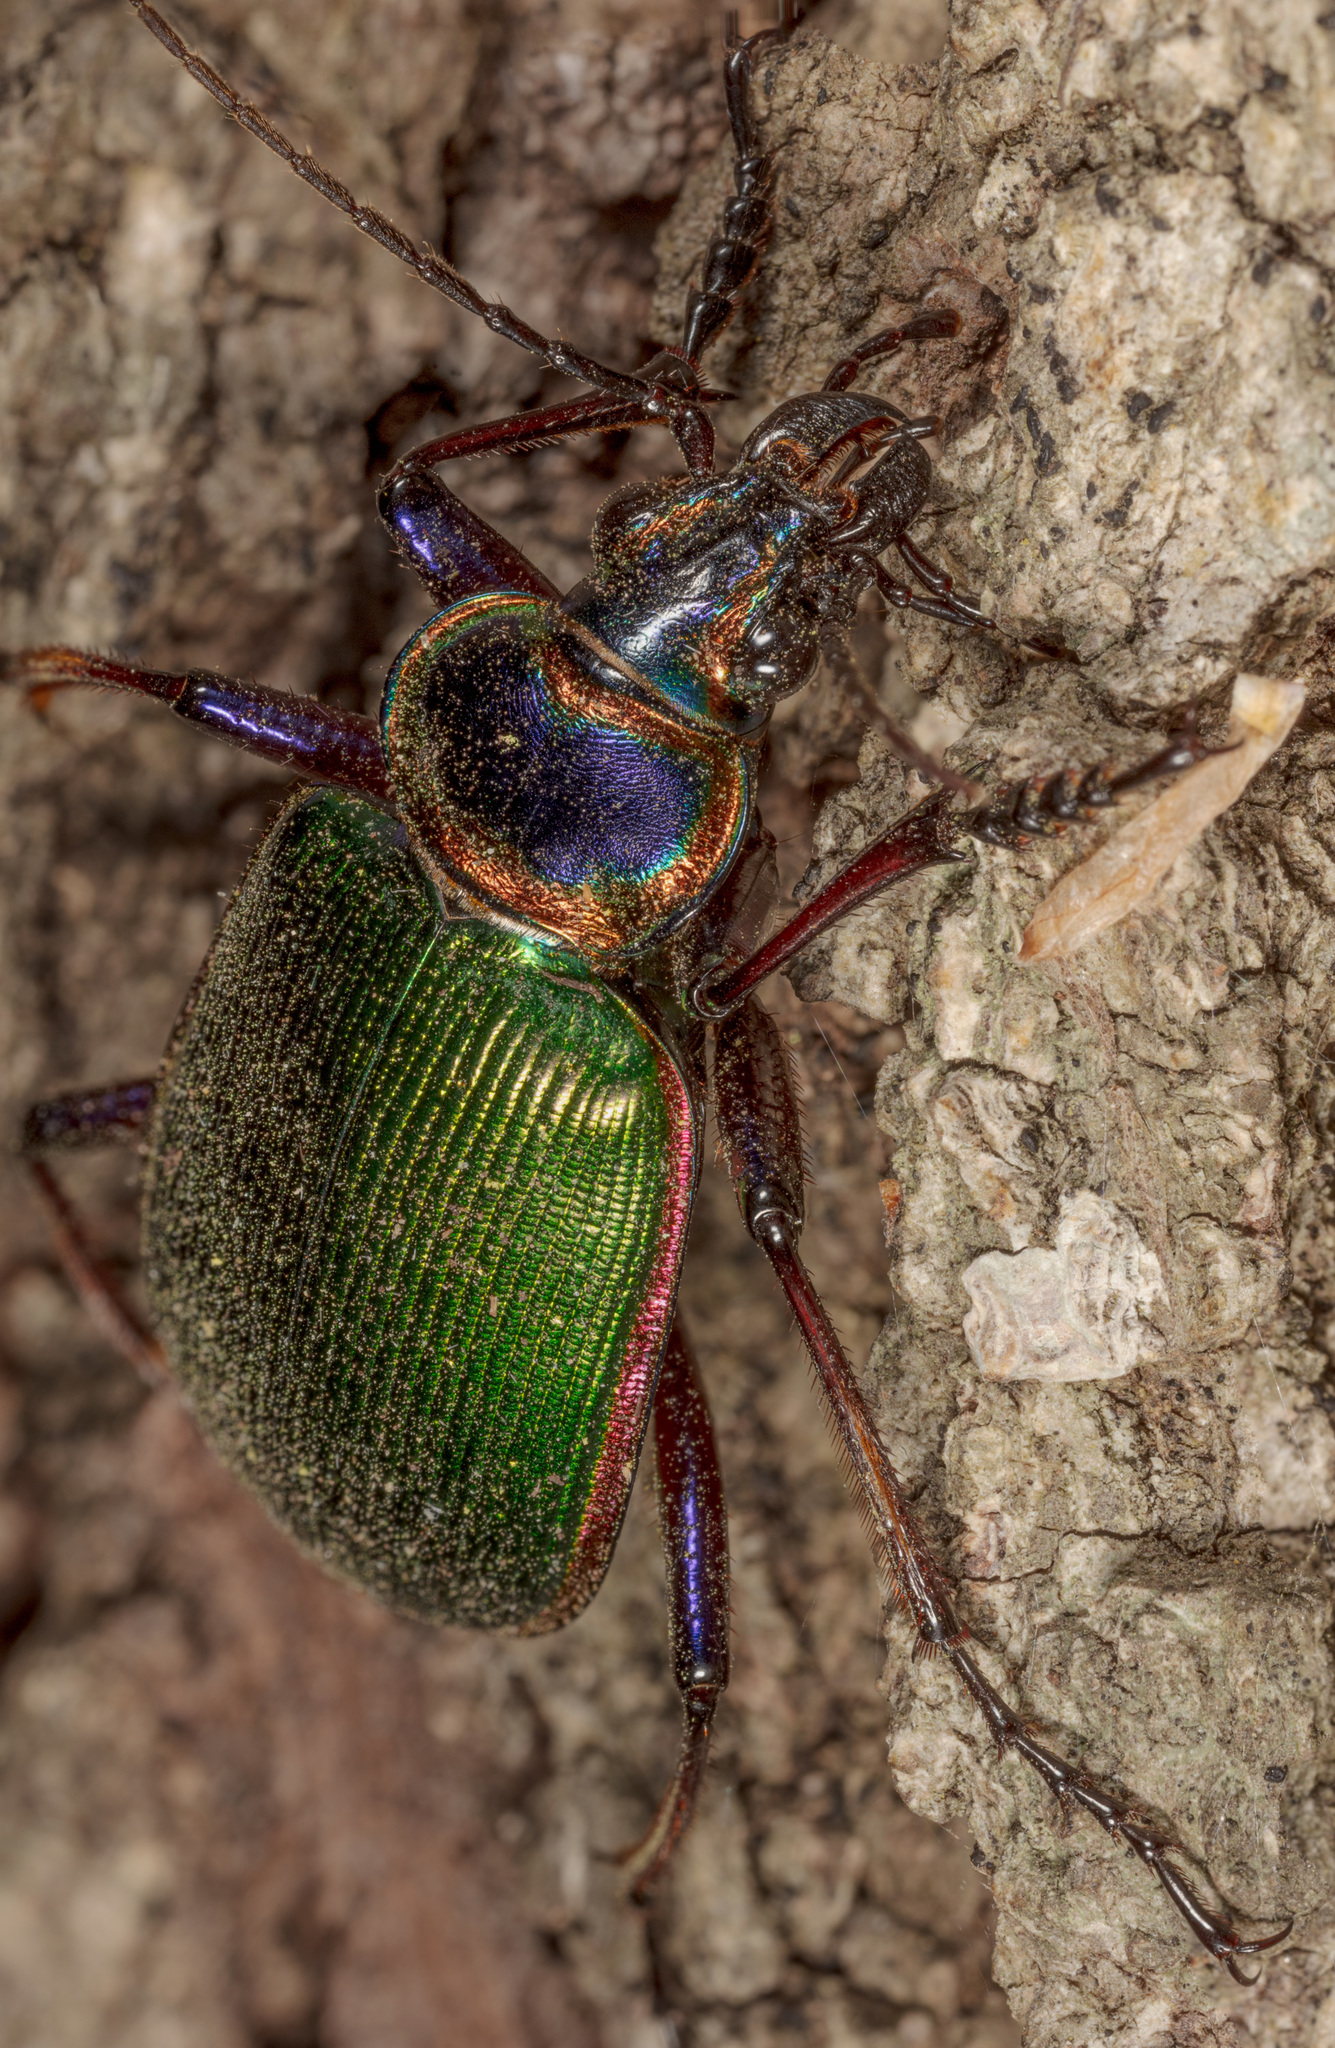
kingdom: Animalia
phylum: Arthropoda
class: Insecta
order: Coleoptera
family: Carabidae
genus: Calosoma
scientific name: Calosoma scrutator
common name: Fiery searcher beetle
